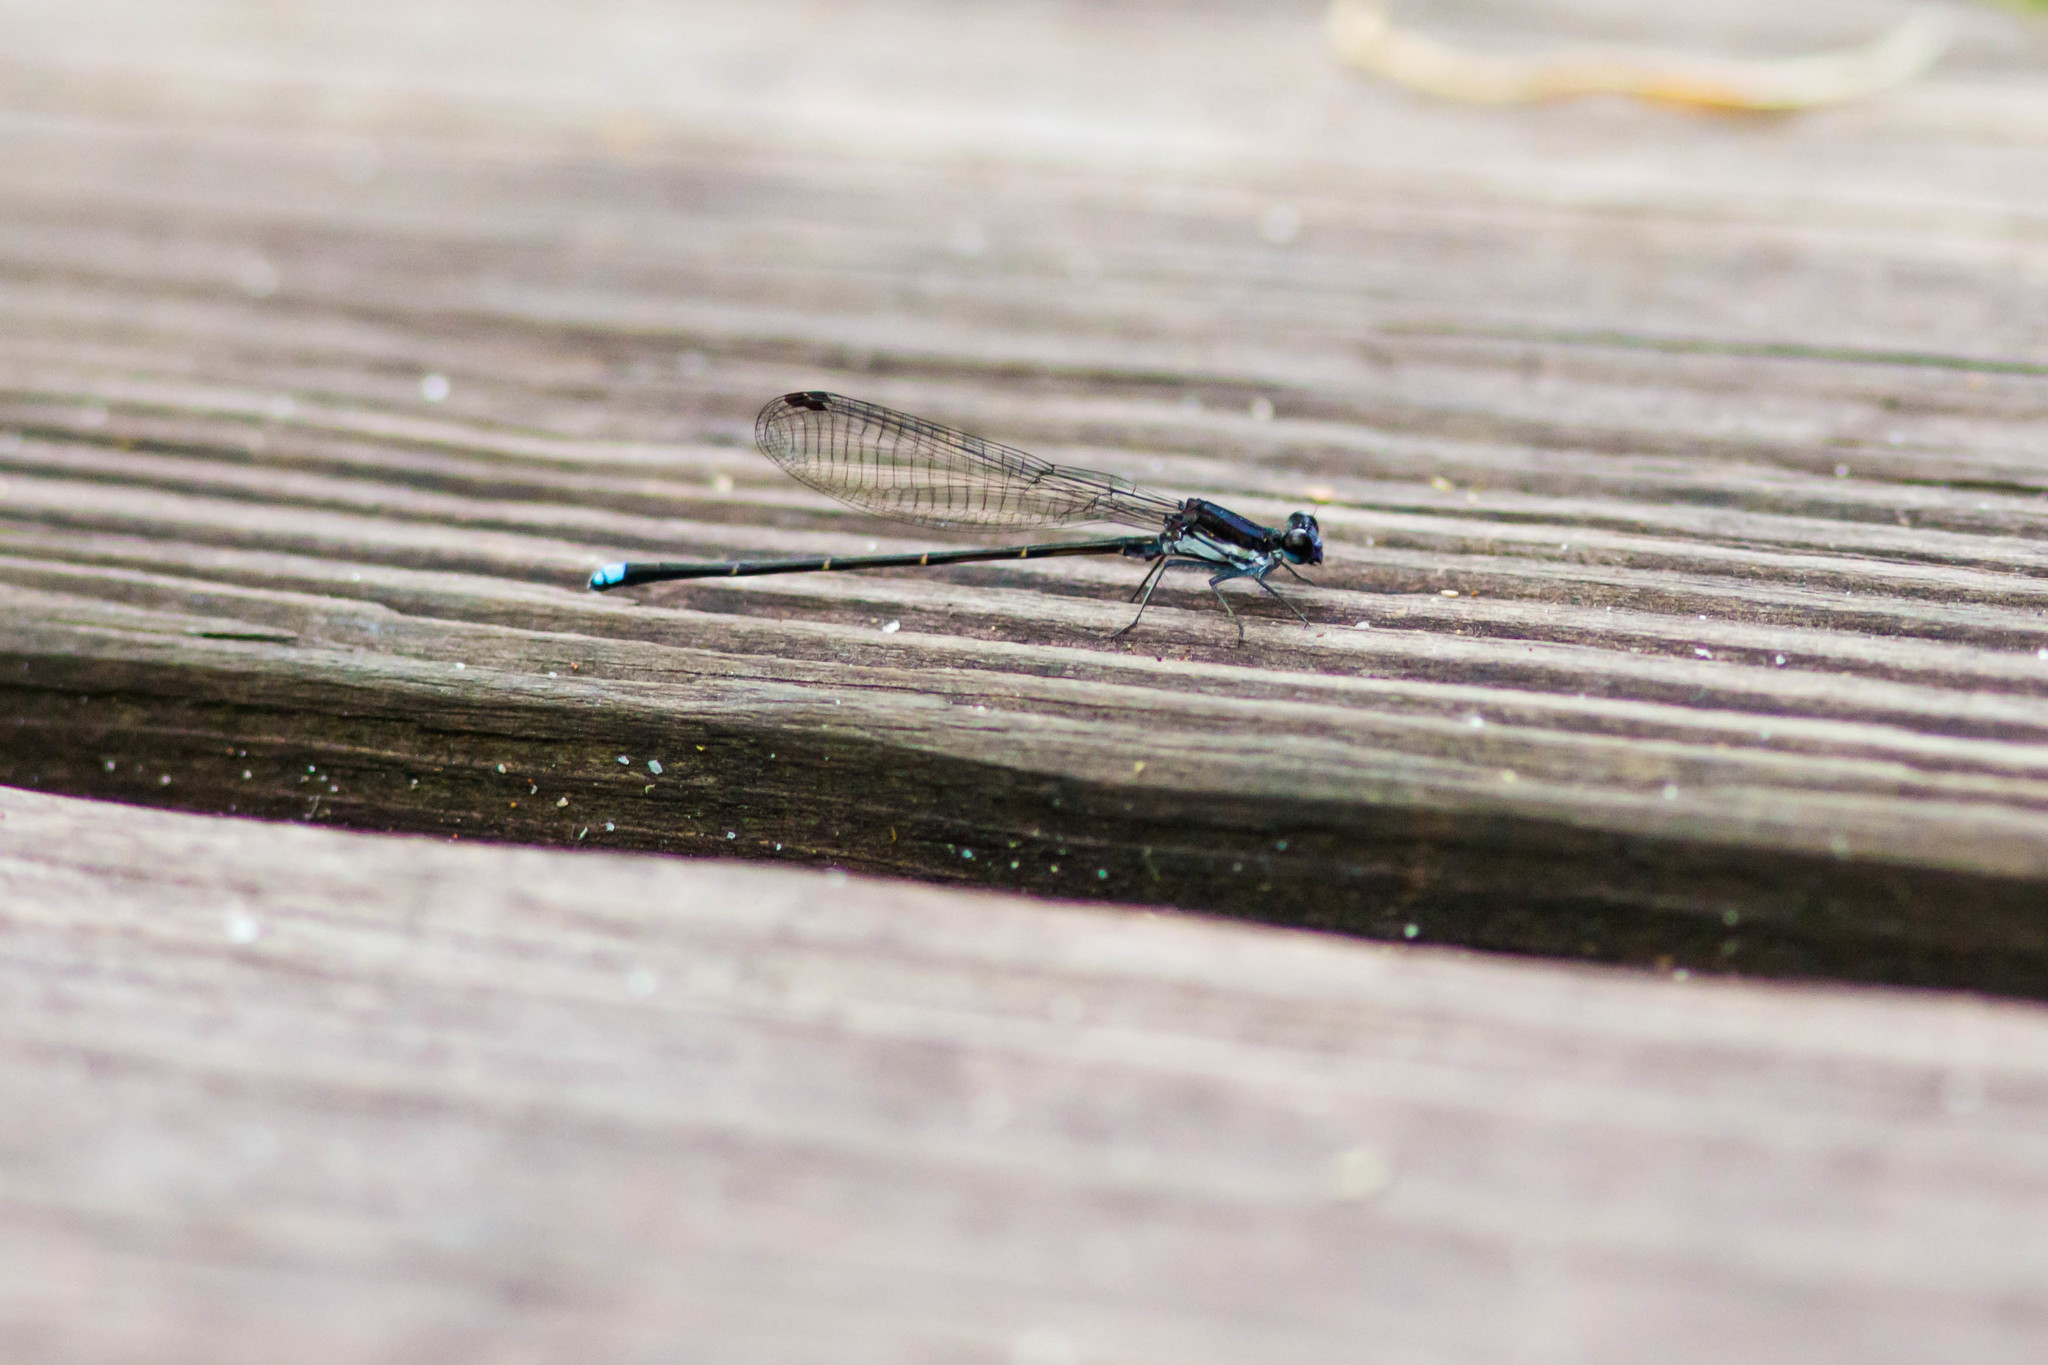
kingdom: Animalia
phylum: Arthropoda
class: Insecta
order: Odonata
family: Coenagrionidae
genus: Argia
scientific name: Argia tibialis
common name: Blue-tipped dancer
